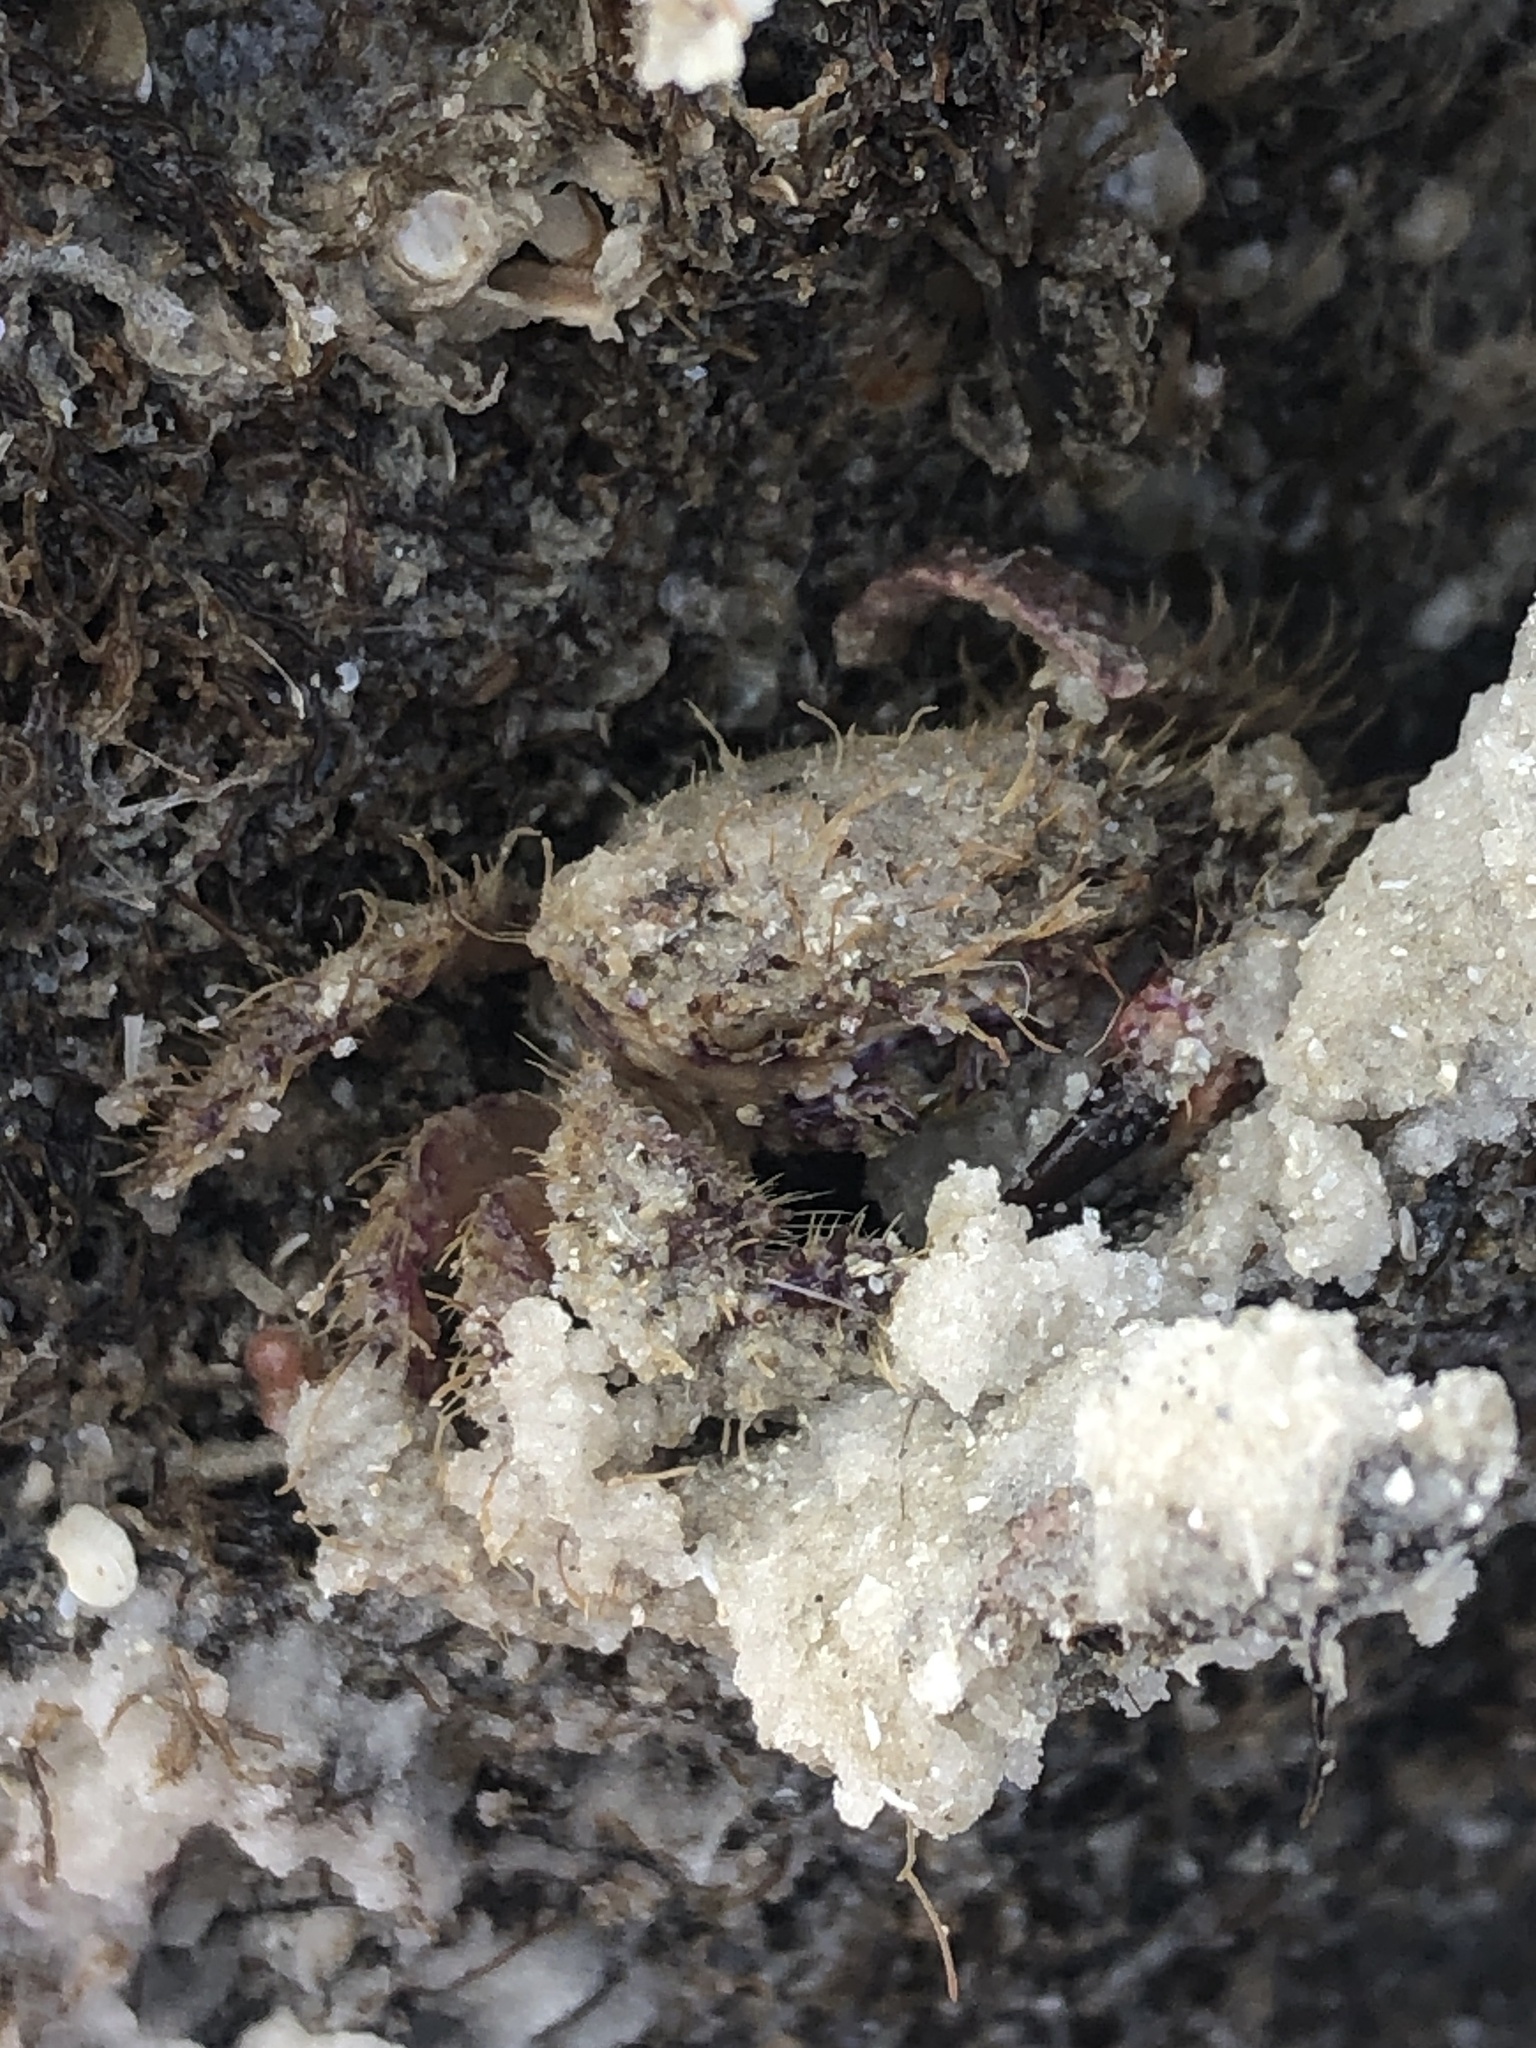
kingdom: Animalia
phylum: Arthropoda
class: Malacostraca
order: Decapoda
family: Pilumnidae
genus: Pilumnus
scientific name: Pilumnus sayi
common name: Say's pilumnus
